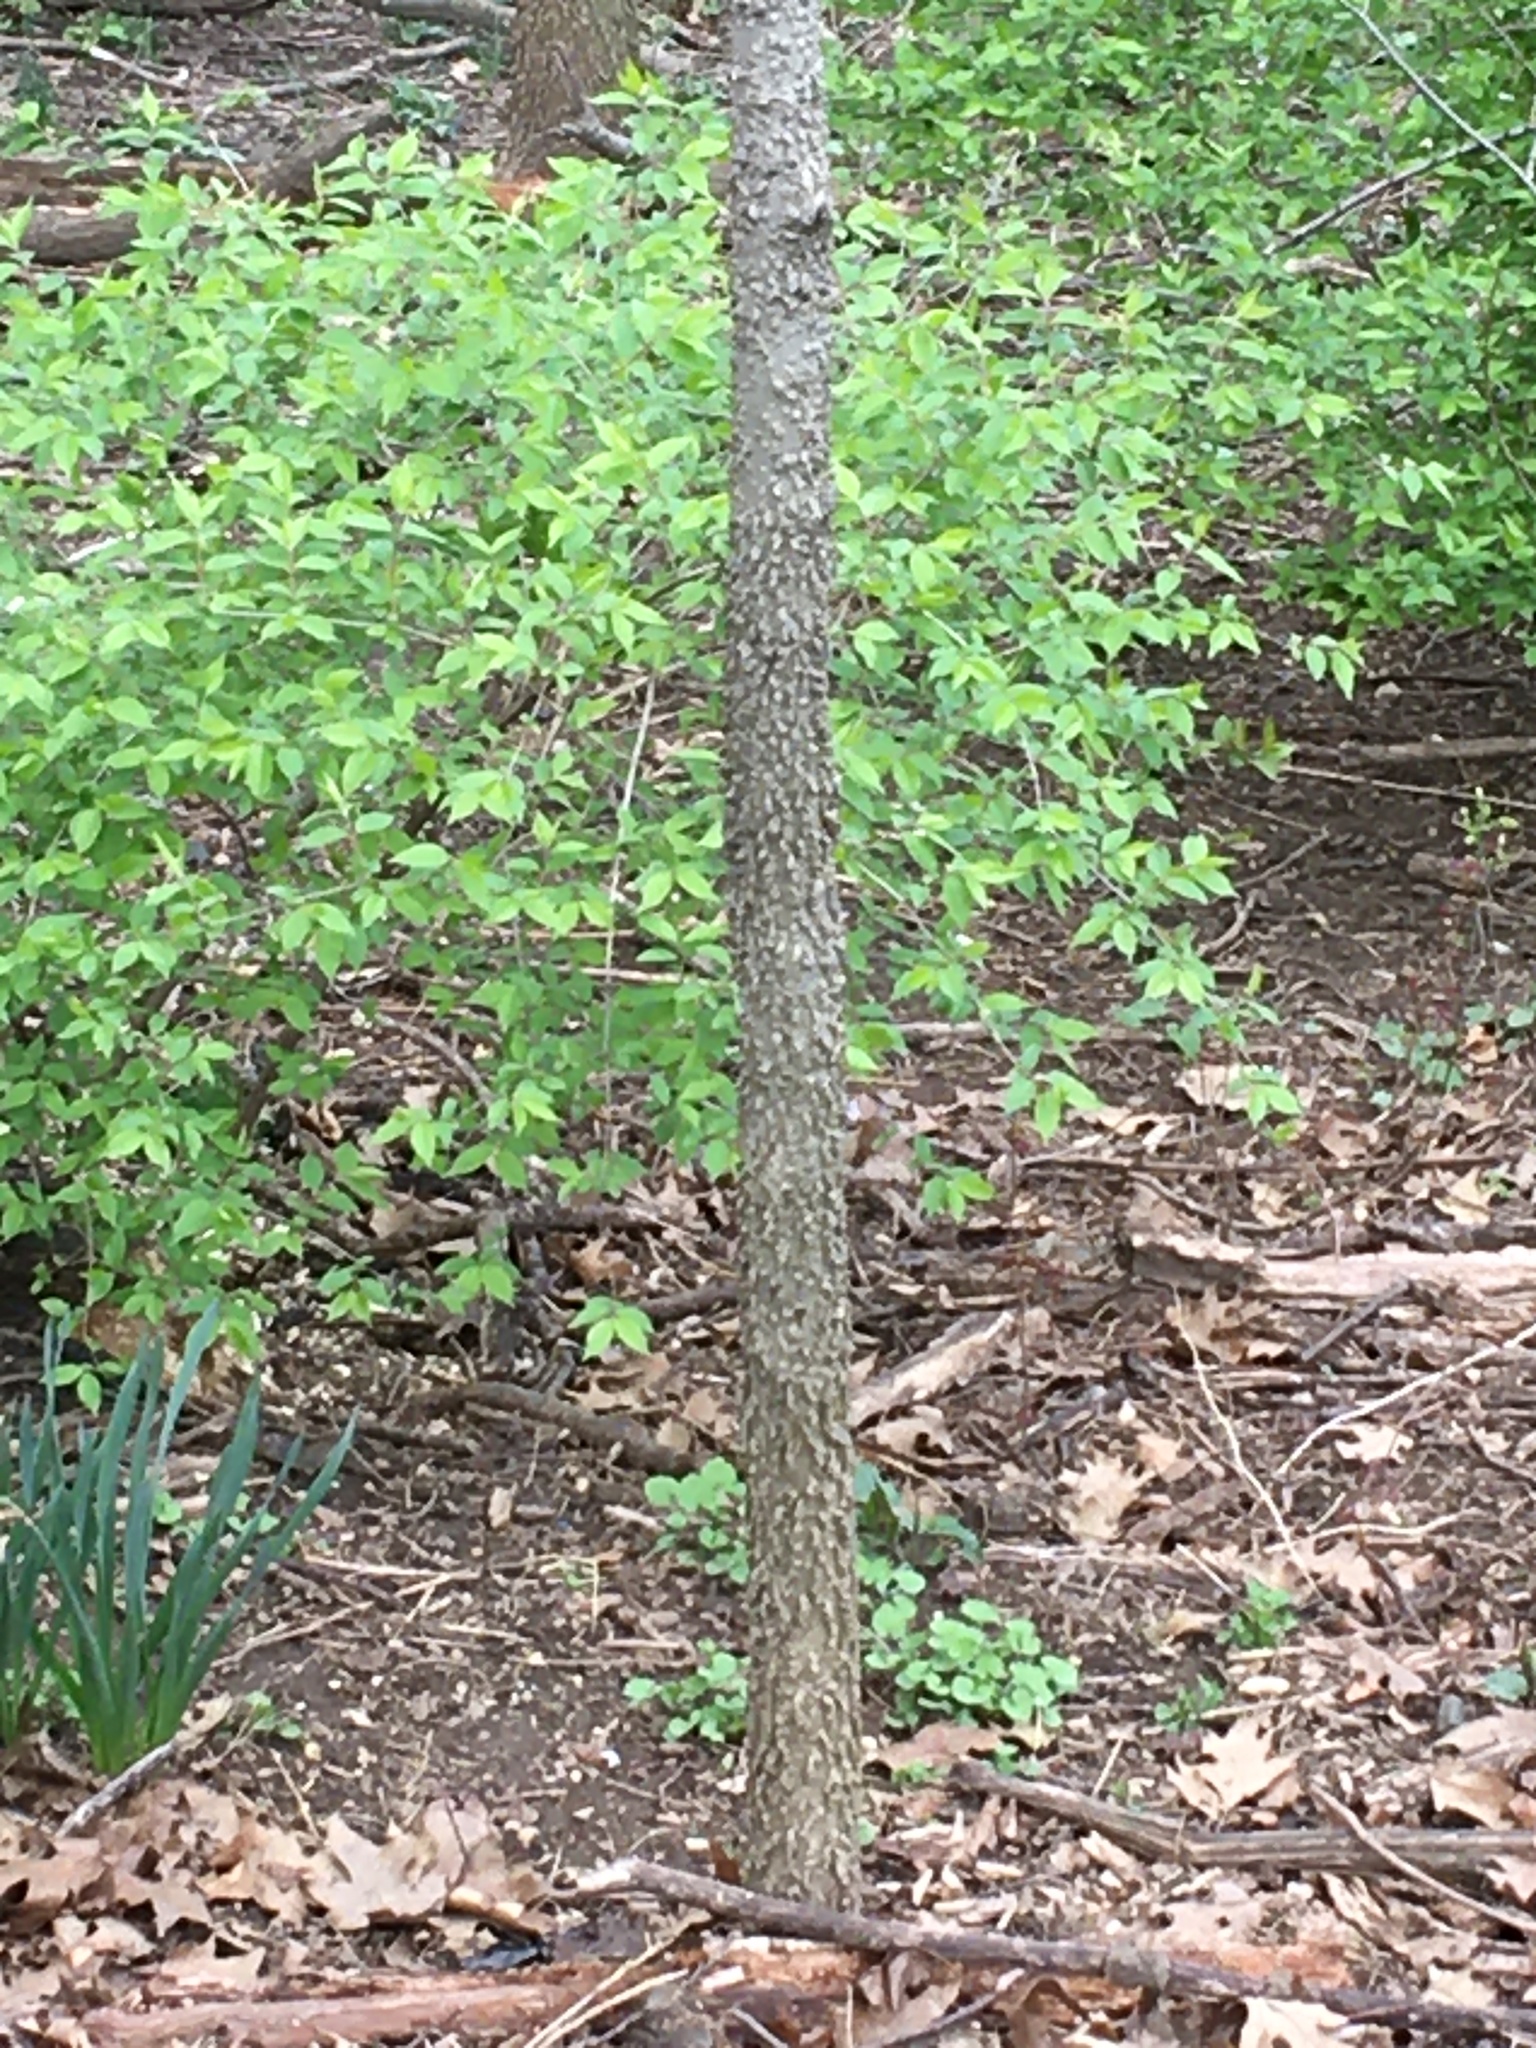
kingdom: Plantae
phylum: Tracheophyta
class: Magnoliopsida
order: Rosales
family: Cannabaceae
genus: Celtis
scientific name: Celtis occidentalis
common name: Common hackberry
